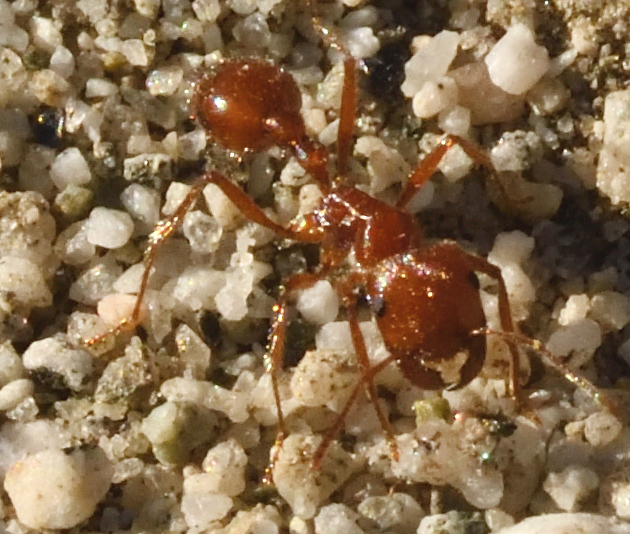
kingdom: Animalia
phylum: Arthropoda
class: Insecta
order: Hymenoptera
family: Formicidae
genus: Pogonomyrmex
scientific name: Pogonomyrmex californicus
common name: California harvester ant
